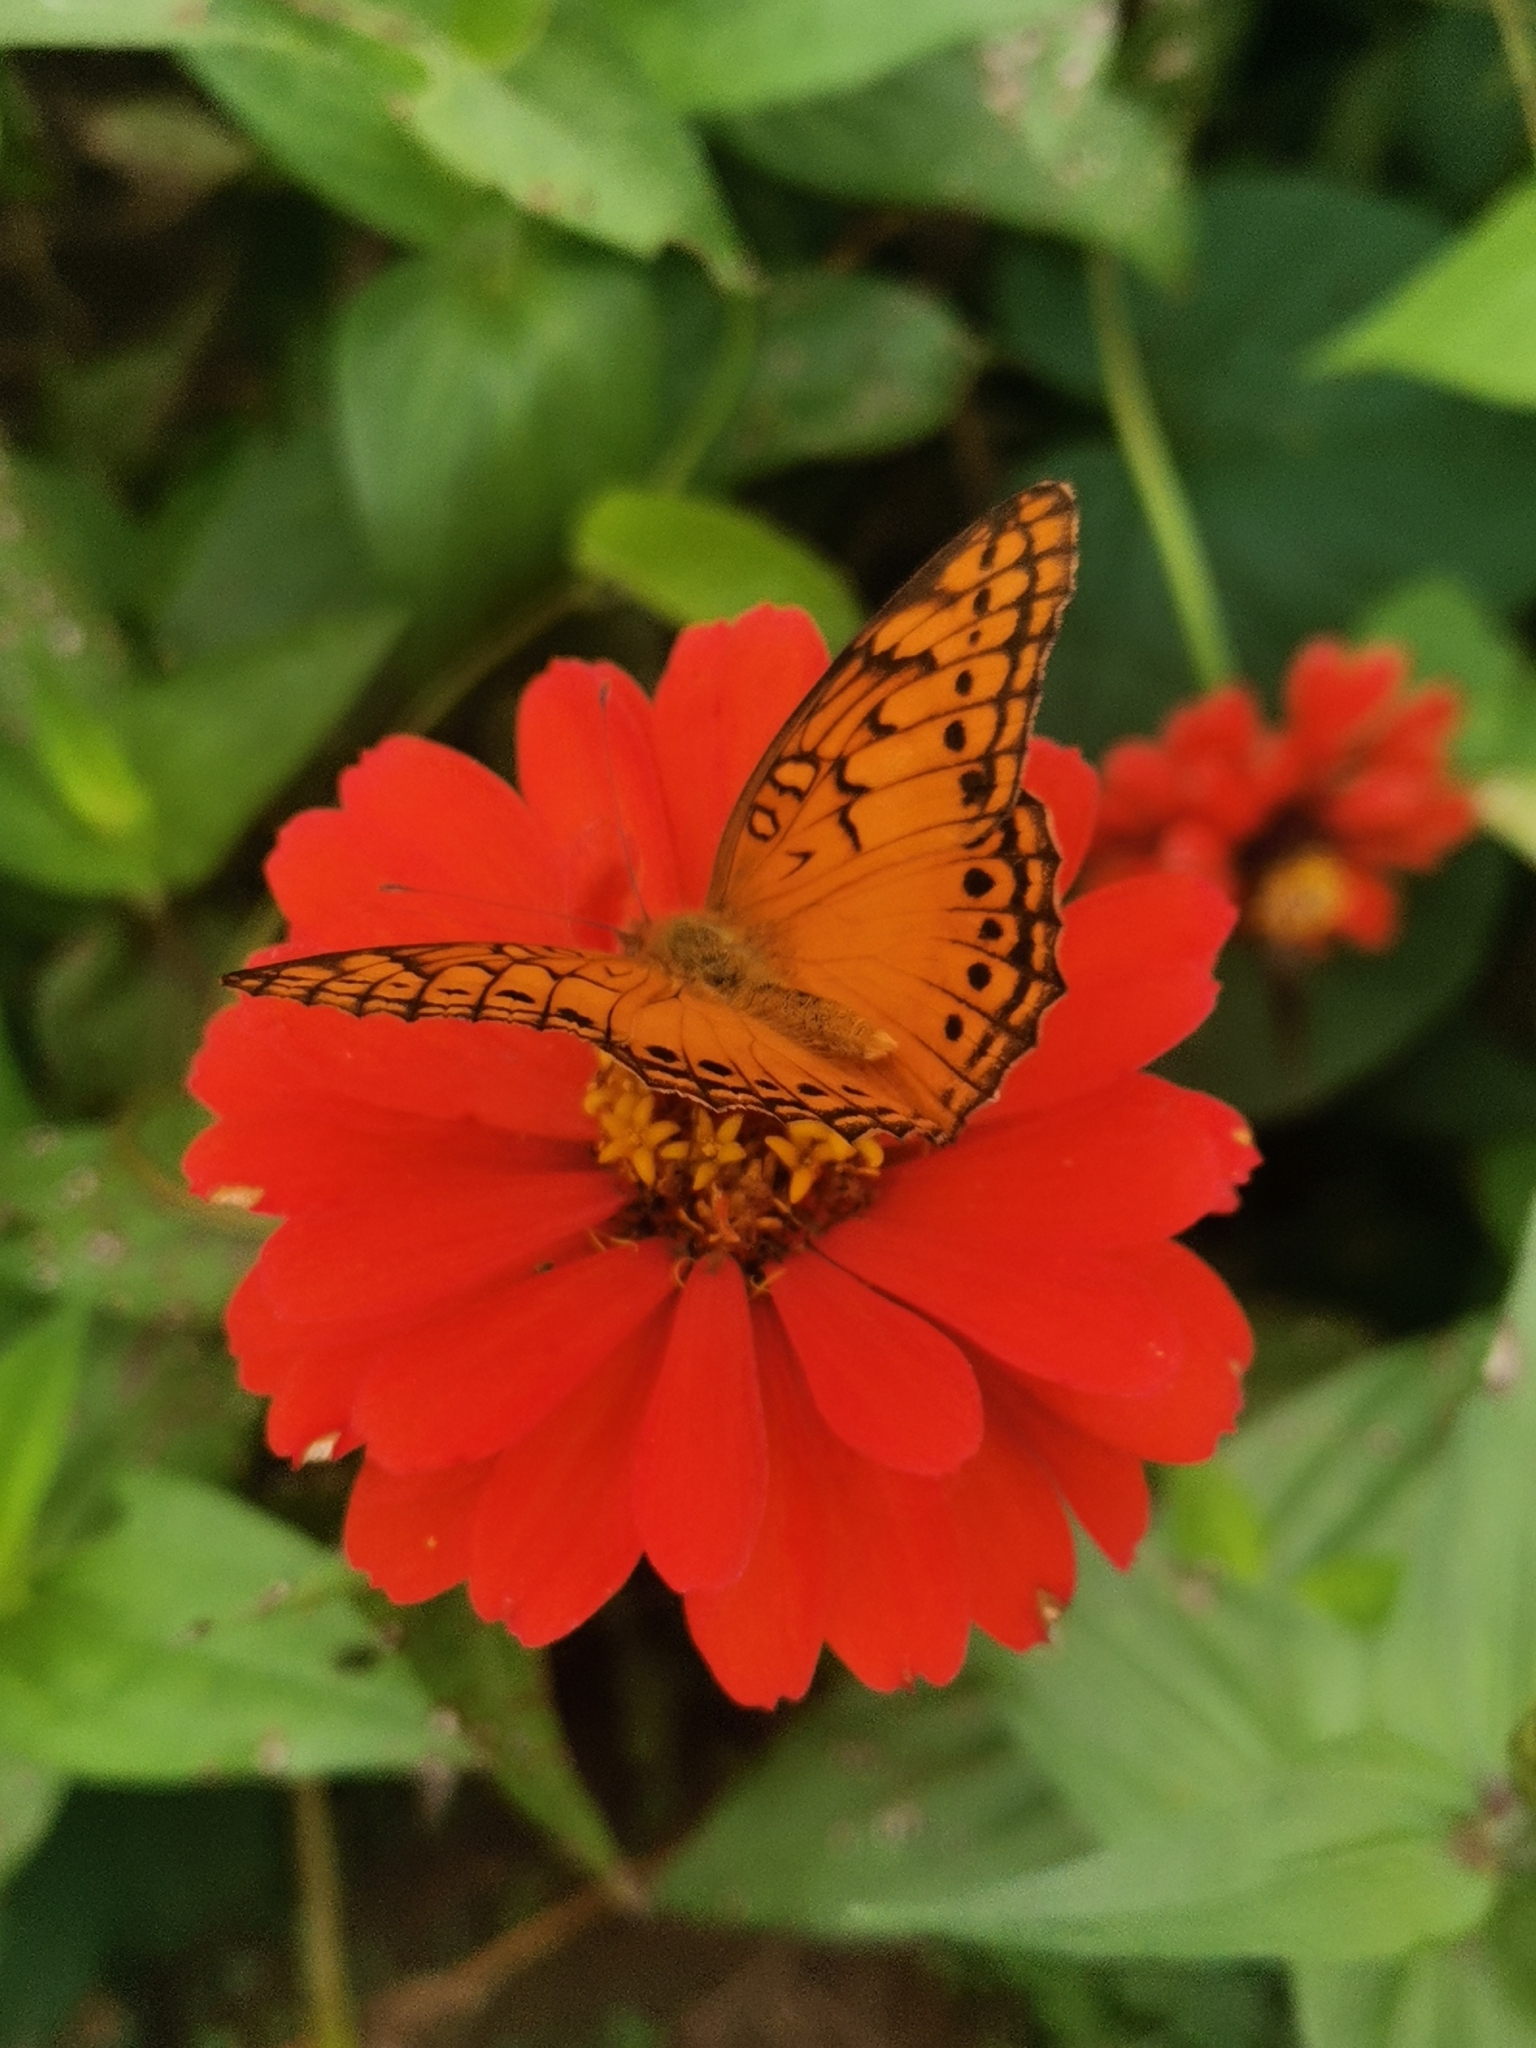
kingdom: Animalia
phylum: Arthropoda
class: Insecta
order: Lepidoptera
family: Nymphalidae
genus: Euptoieta
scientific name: Euptoieta hegesia
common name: Mexican fritillary
